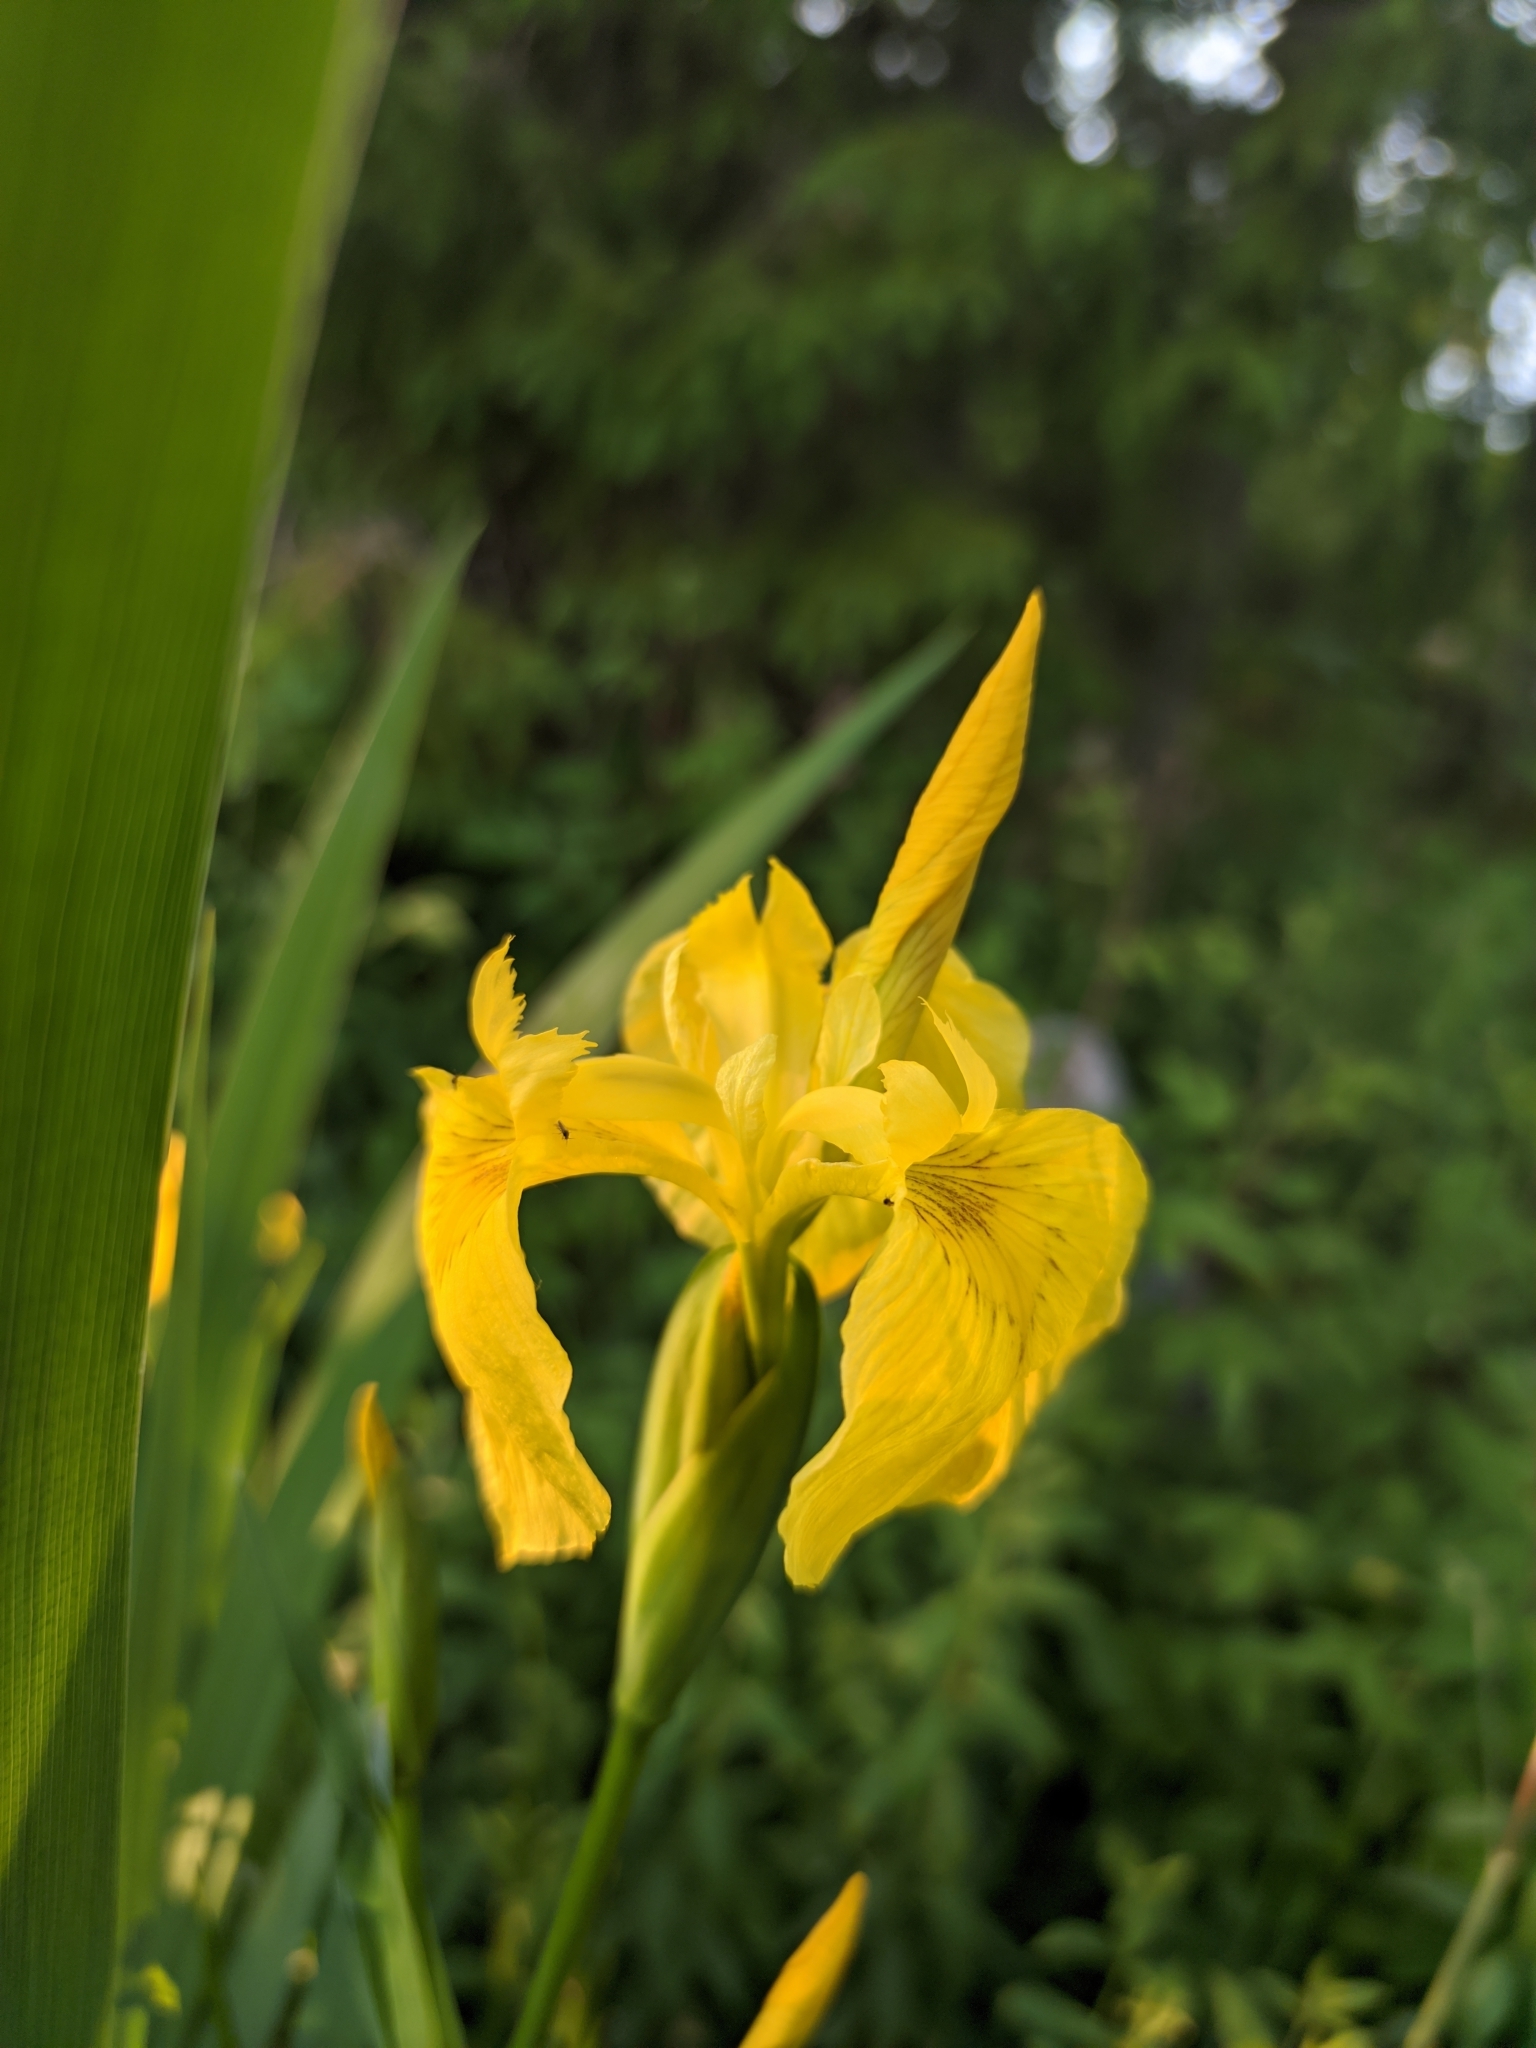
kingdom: Plantae
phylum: Tracheophyta
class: Liliopsida
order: Asparagales
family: Iridaceae
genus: Iris
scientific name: Iris pseudacorus
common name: Yellow flag
